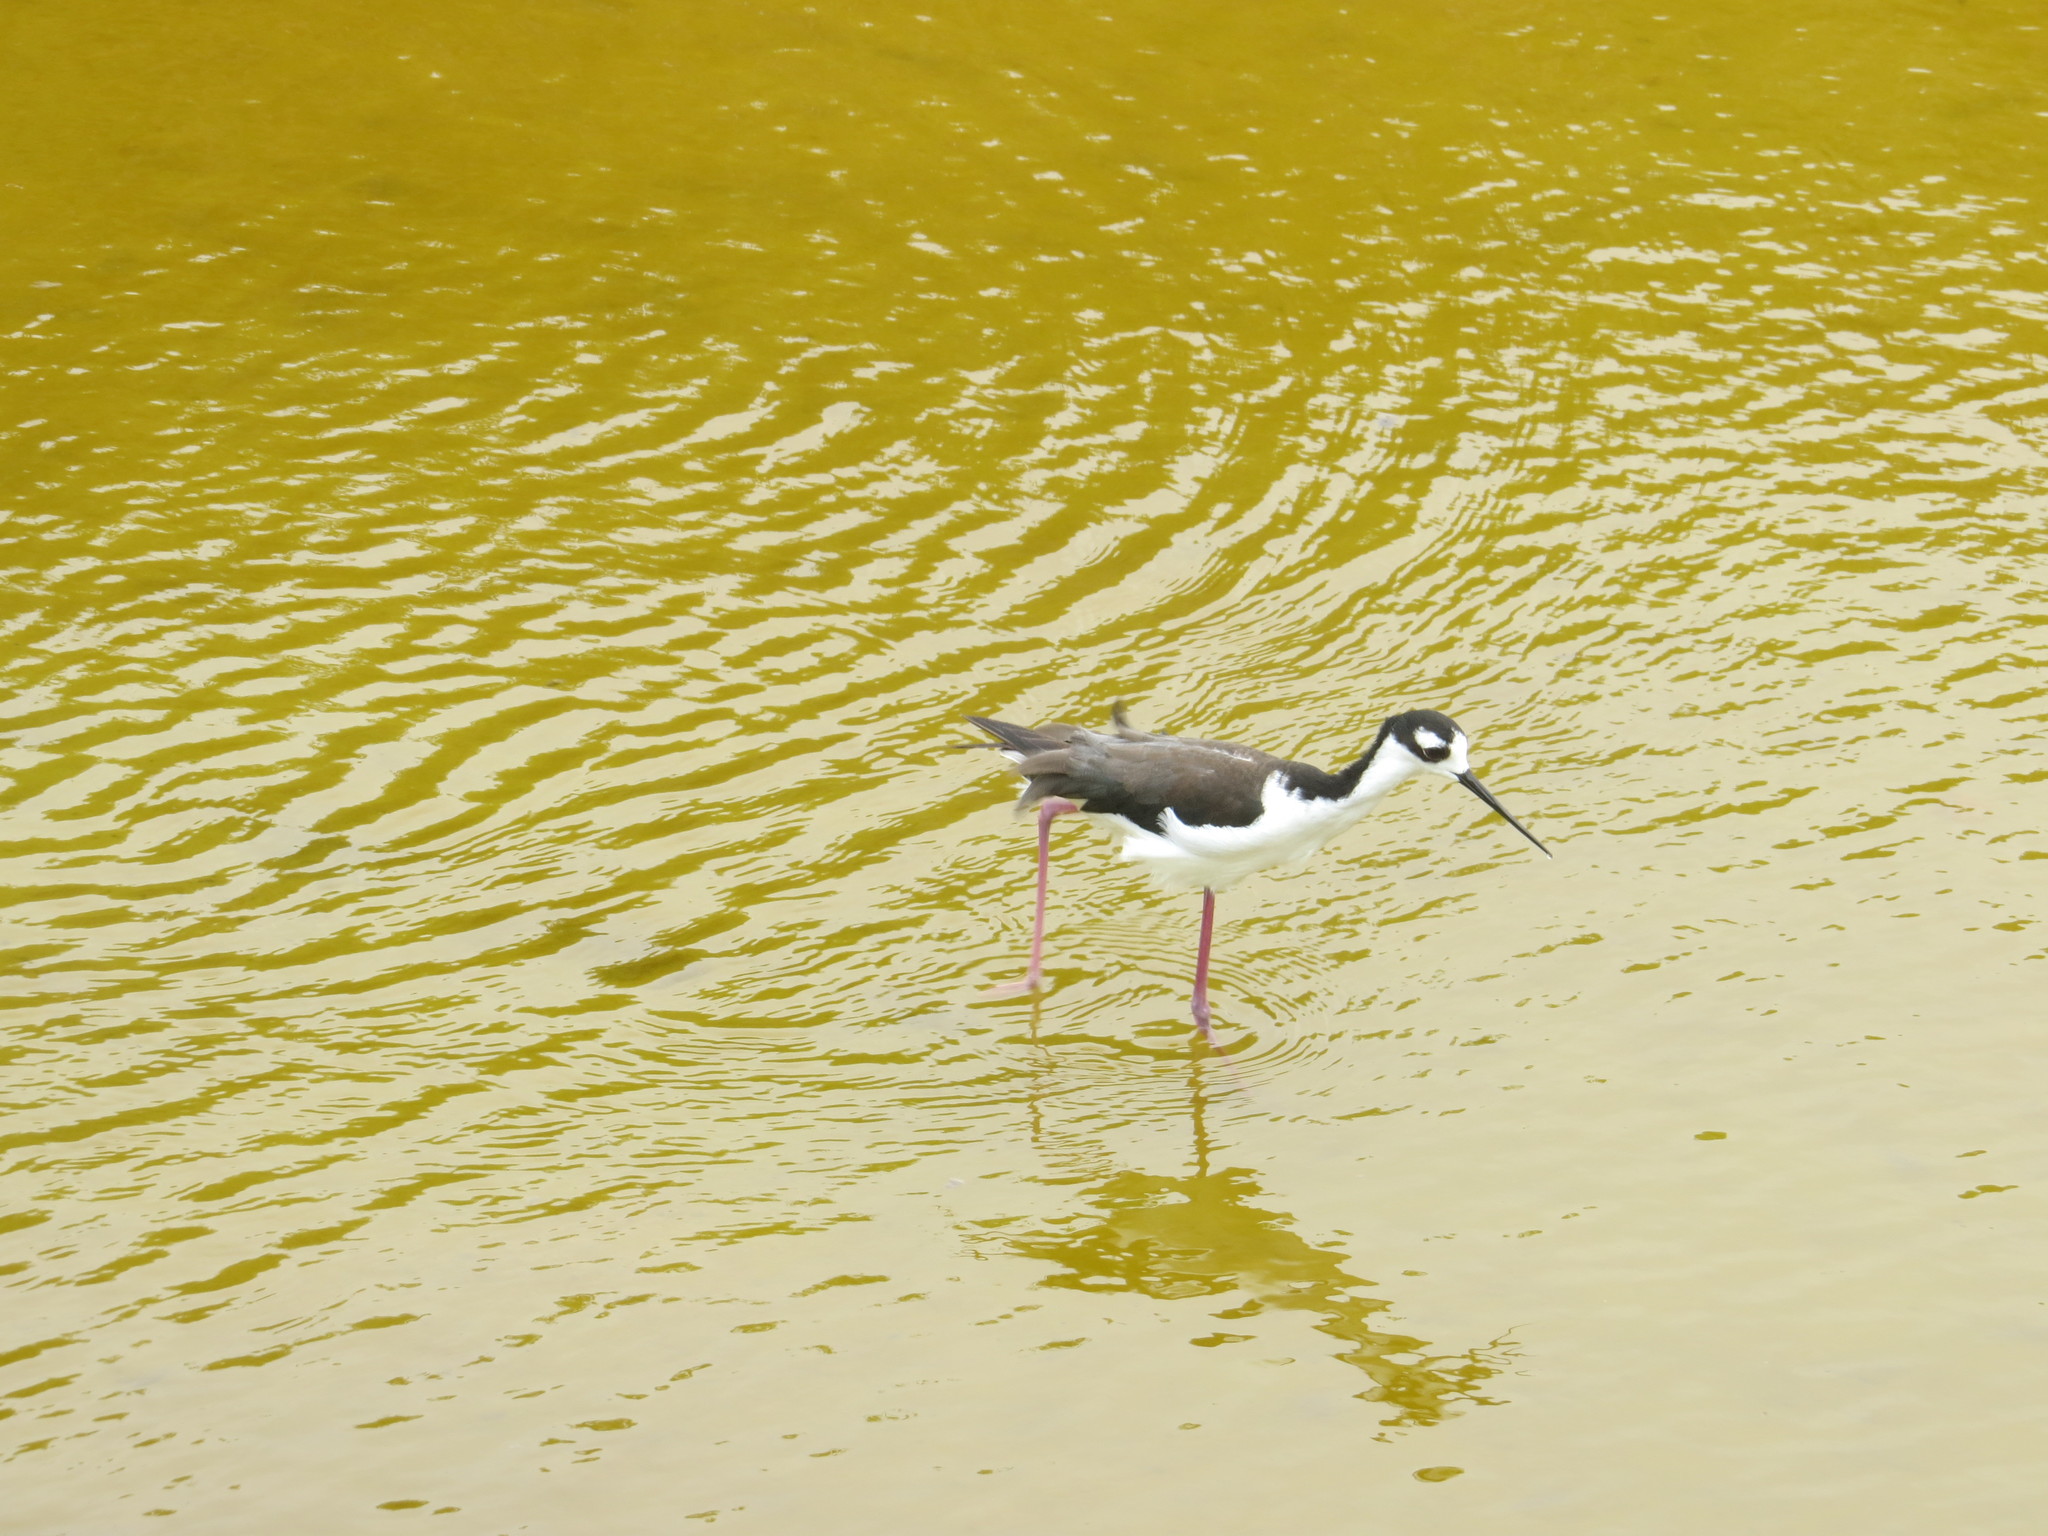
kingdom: Animalia
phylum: Chordata
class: Aves
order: Charadriiformes
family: Recurvirostridae
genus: Himantopus
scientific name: Himantopus mexicanus
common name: Black-necked stilt
